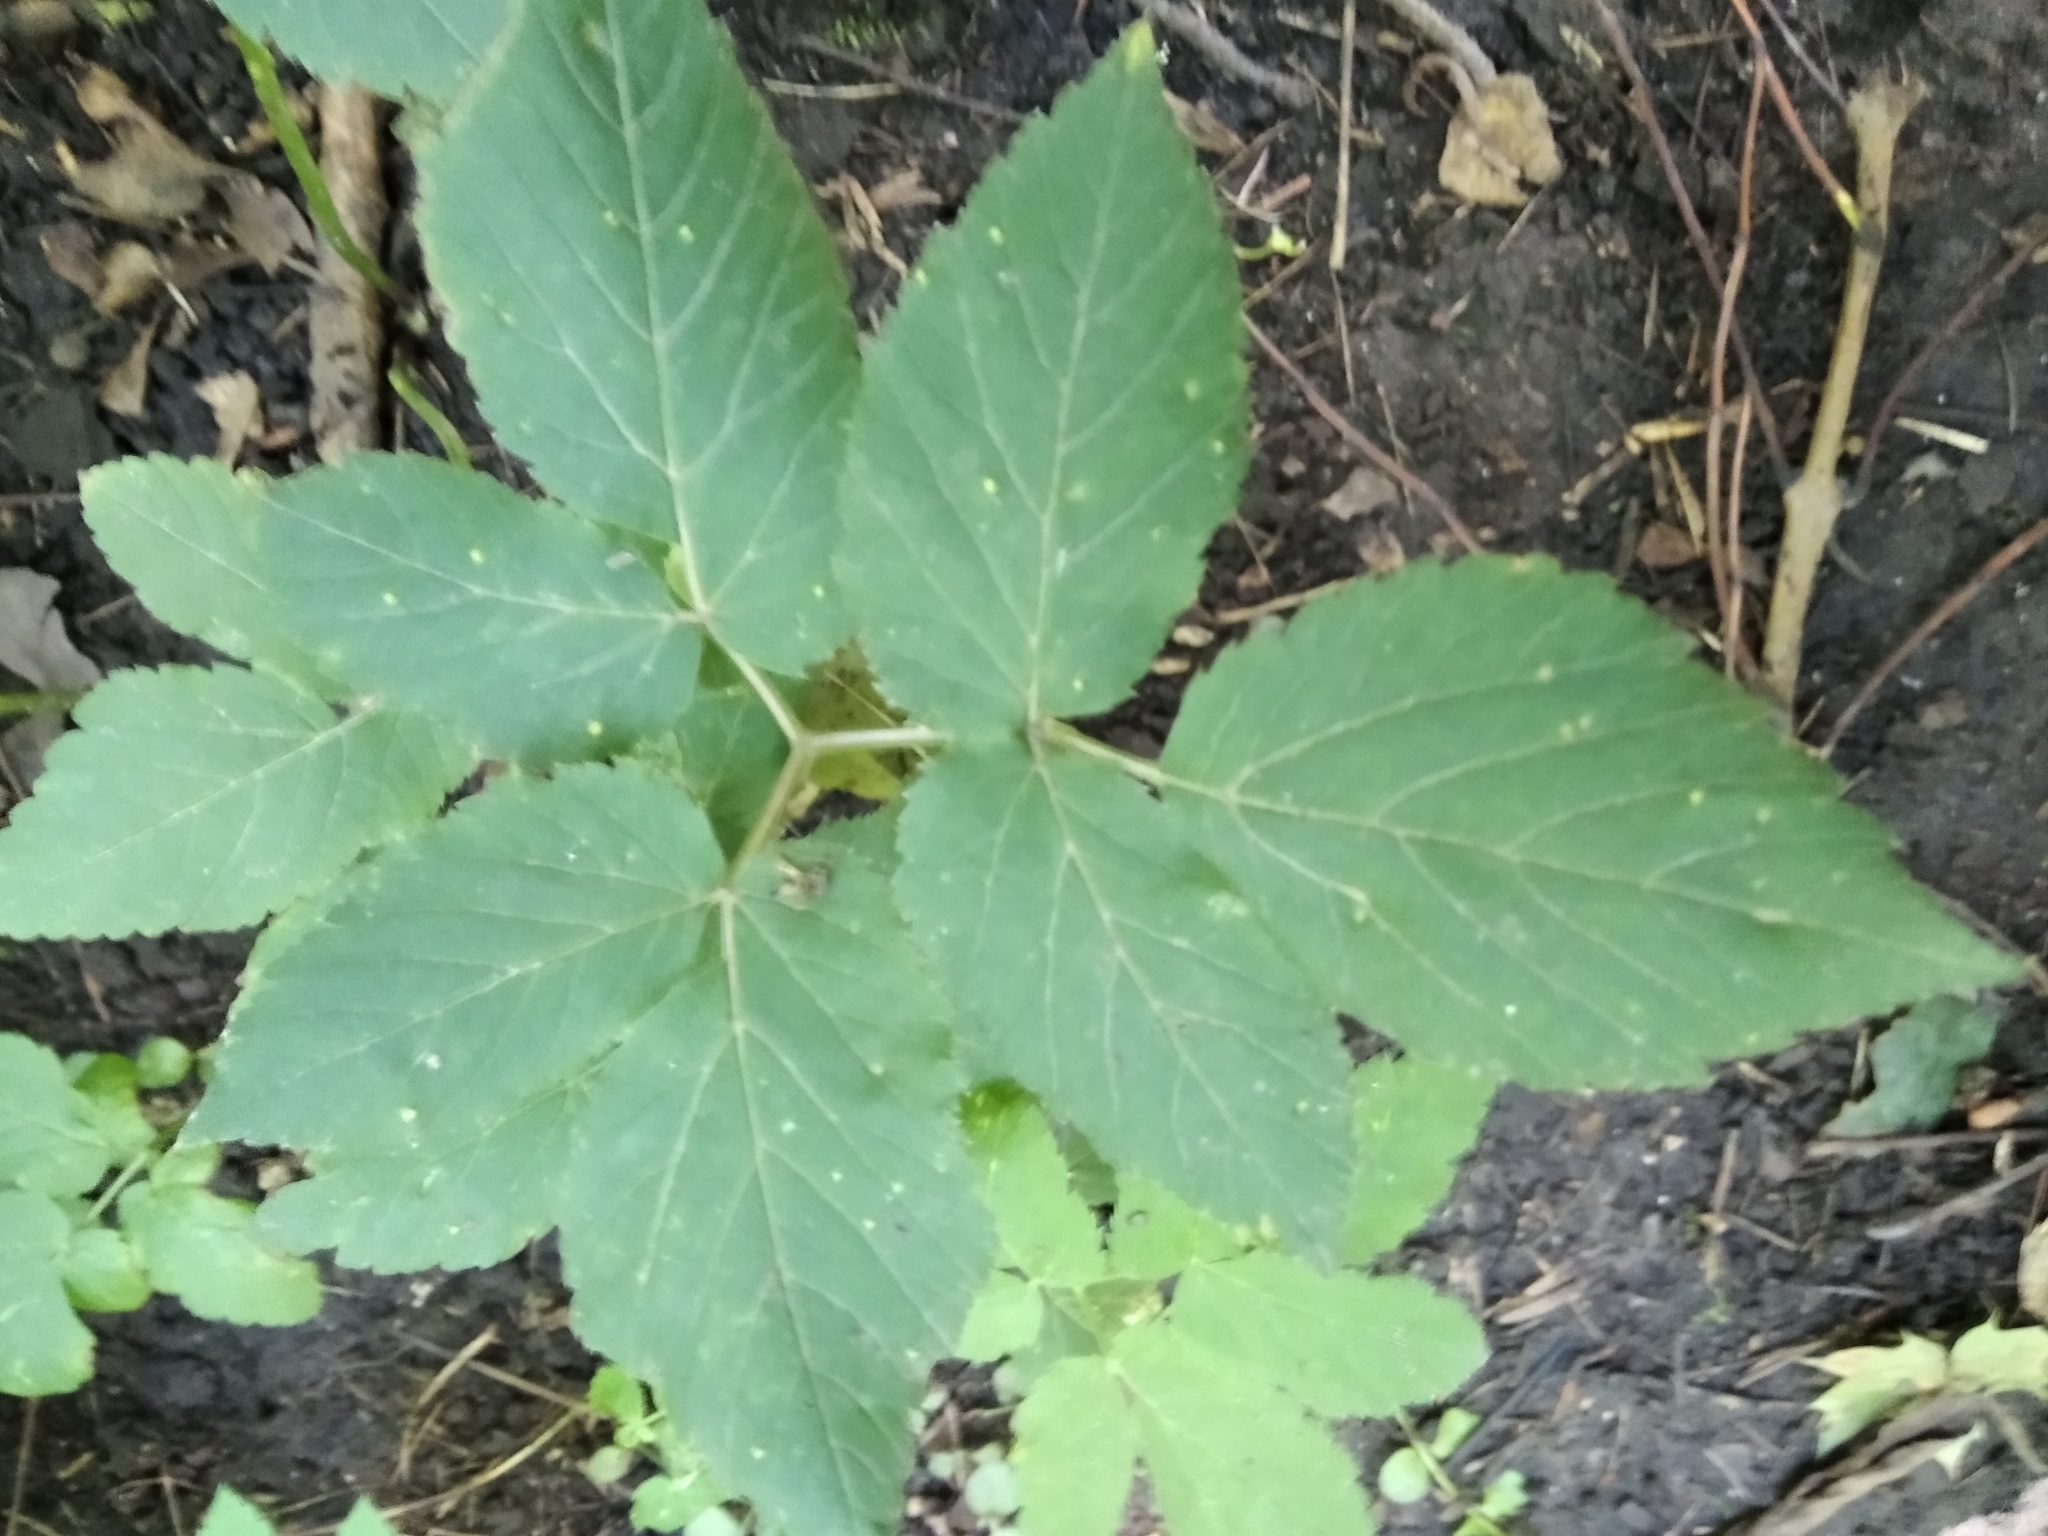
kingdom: Plantae
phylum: Tracheophyta
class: Magnoliopsida
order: Apiales
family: Apiaceae
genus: Aegopodium
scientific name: Aegopodium podagraria
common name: Ground-elder
